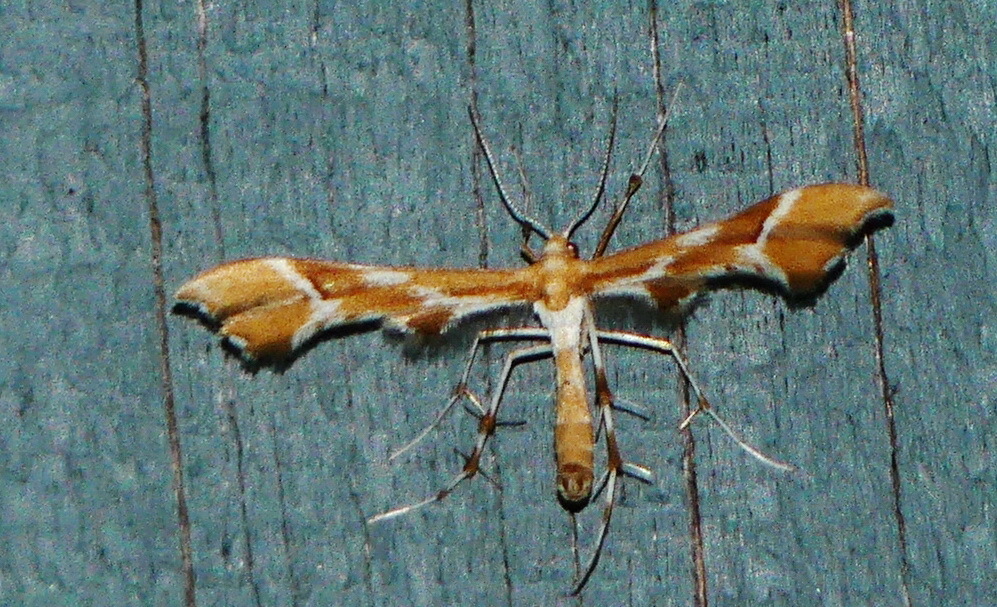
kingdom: Animalia
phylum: Arthropoda
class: Insecta
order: Lepidoptera
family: Pterophoridae
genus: Cnaemidophorus
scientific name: Cnaemidophorus rhododactyla
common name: Rose plume
